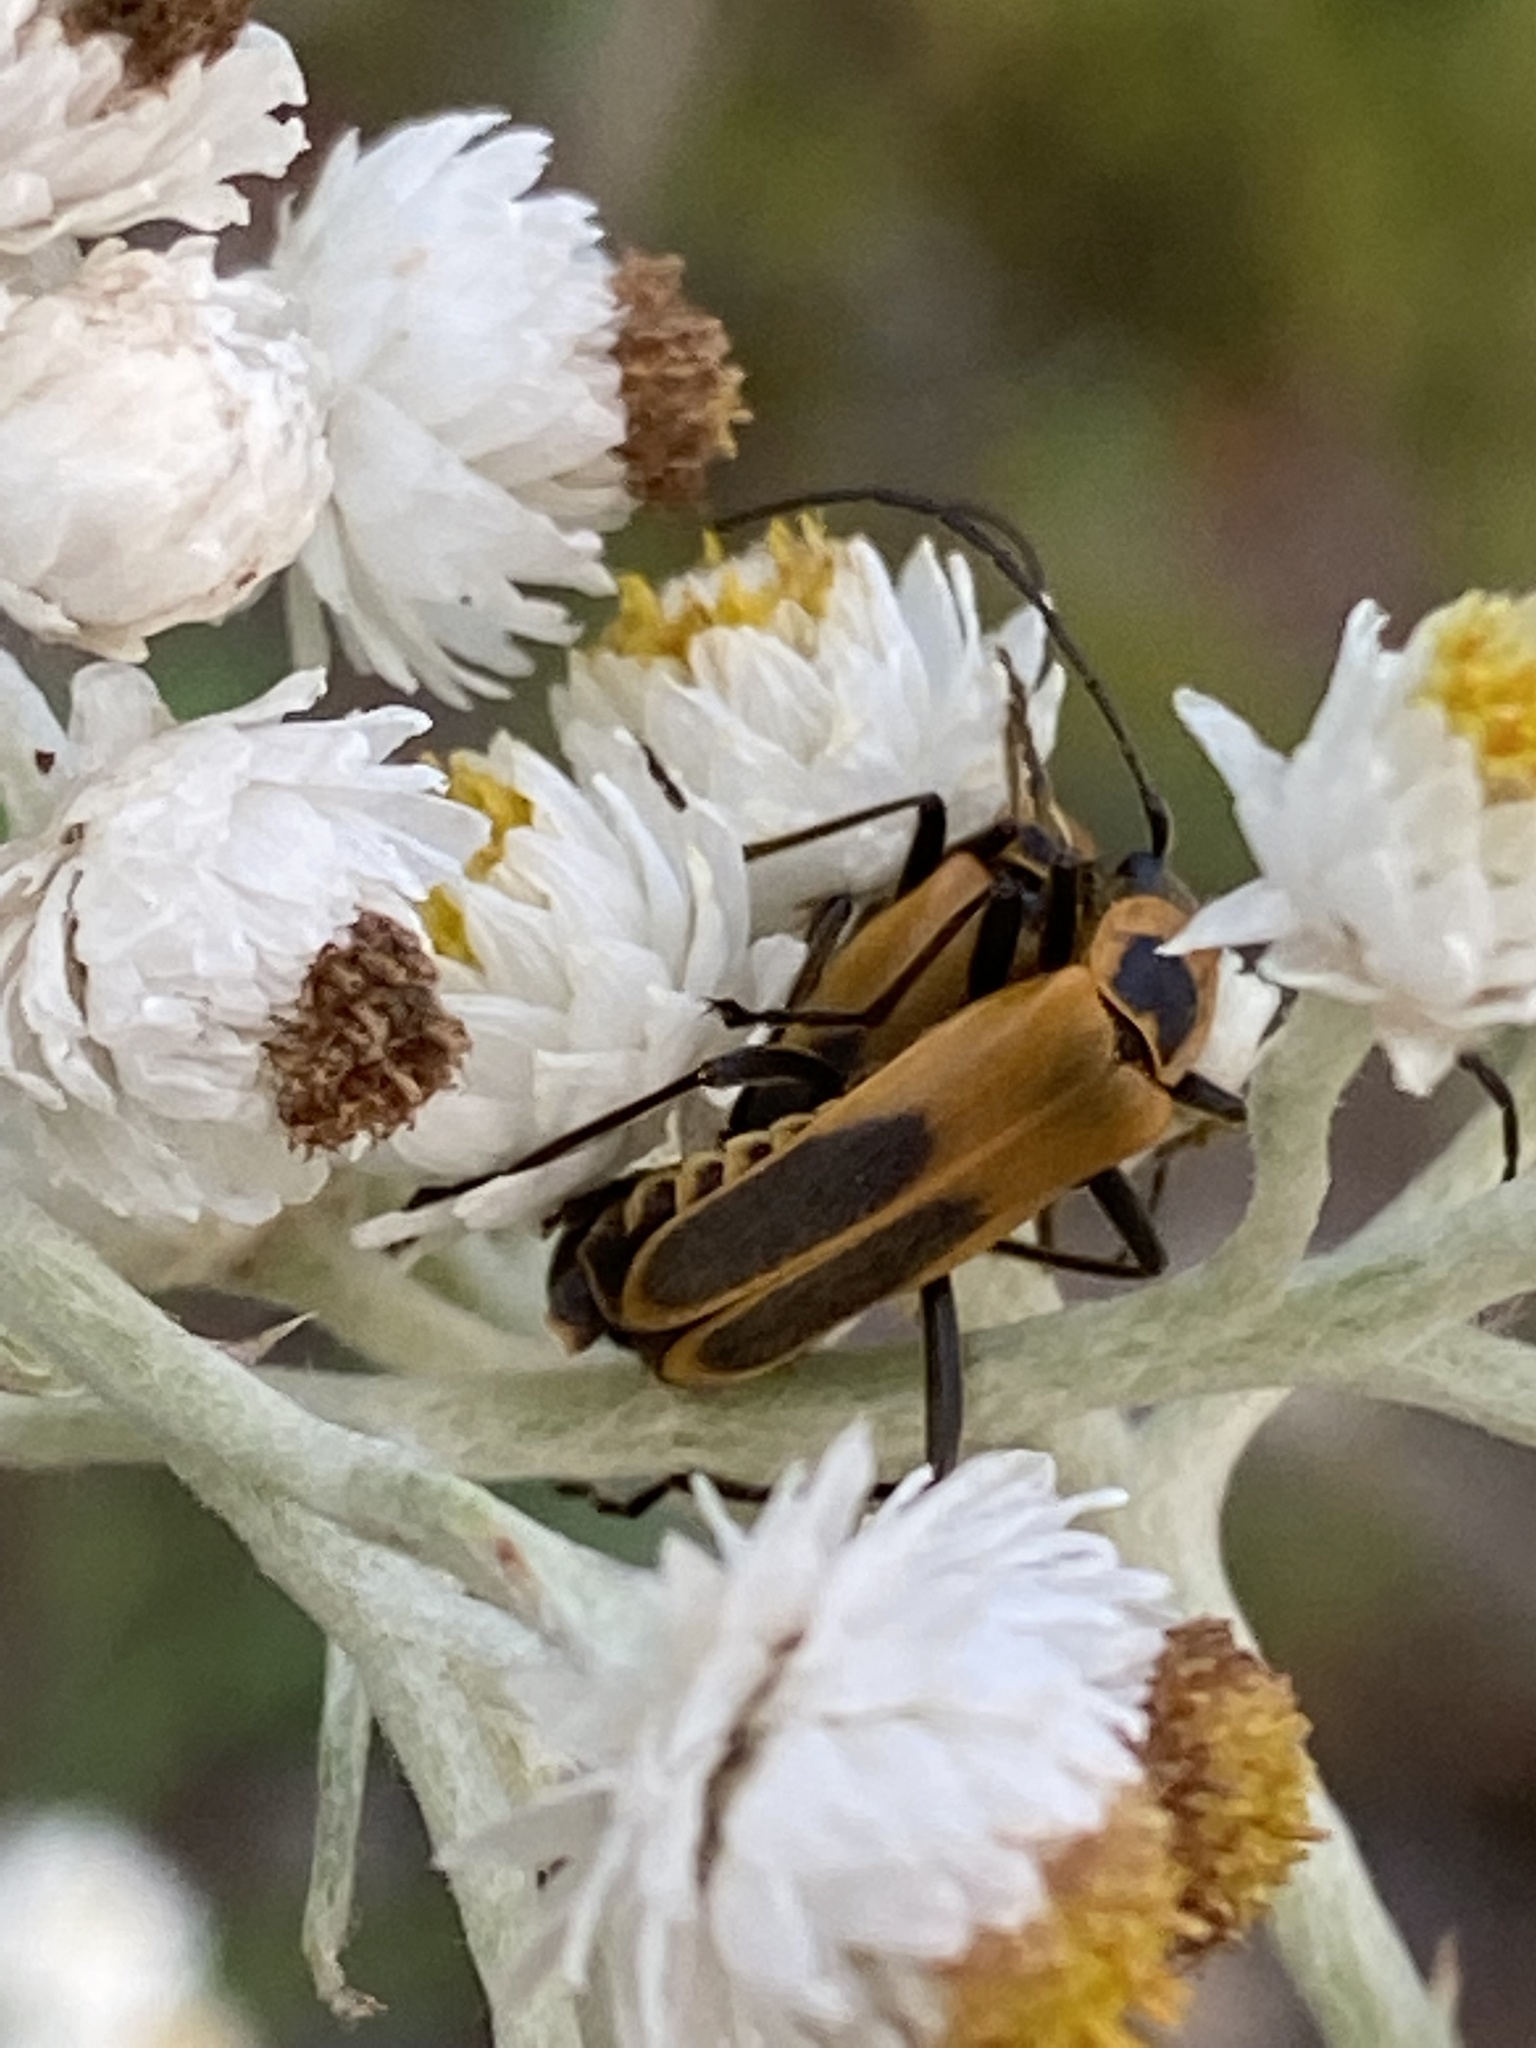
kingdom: Animalia
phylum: Arthropoda
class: Insecta
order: Coleoptera
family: Cantharidae
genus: Chauliognathus
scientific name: Chauliognathus pensylvanicus
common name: Goldenrod soldier beetle
